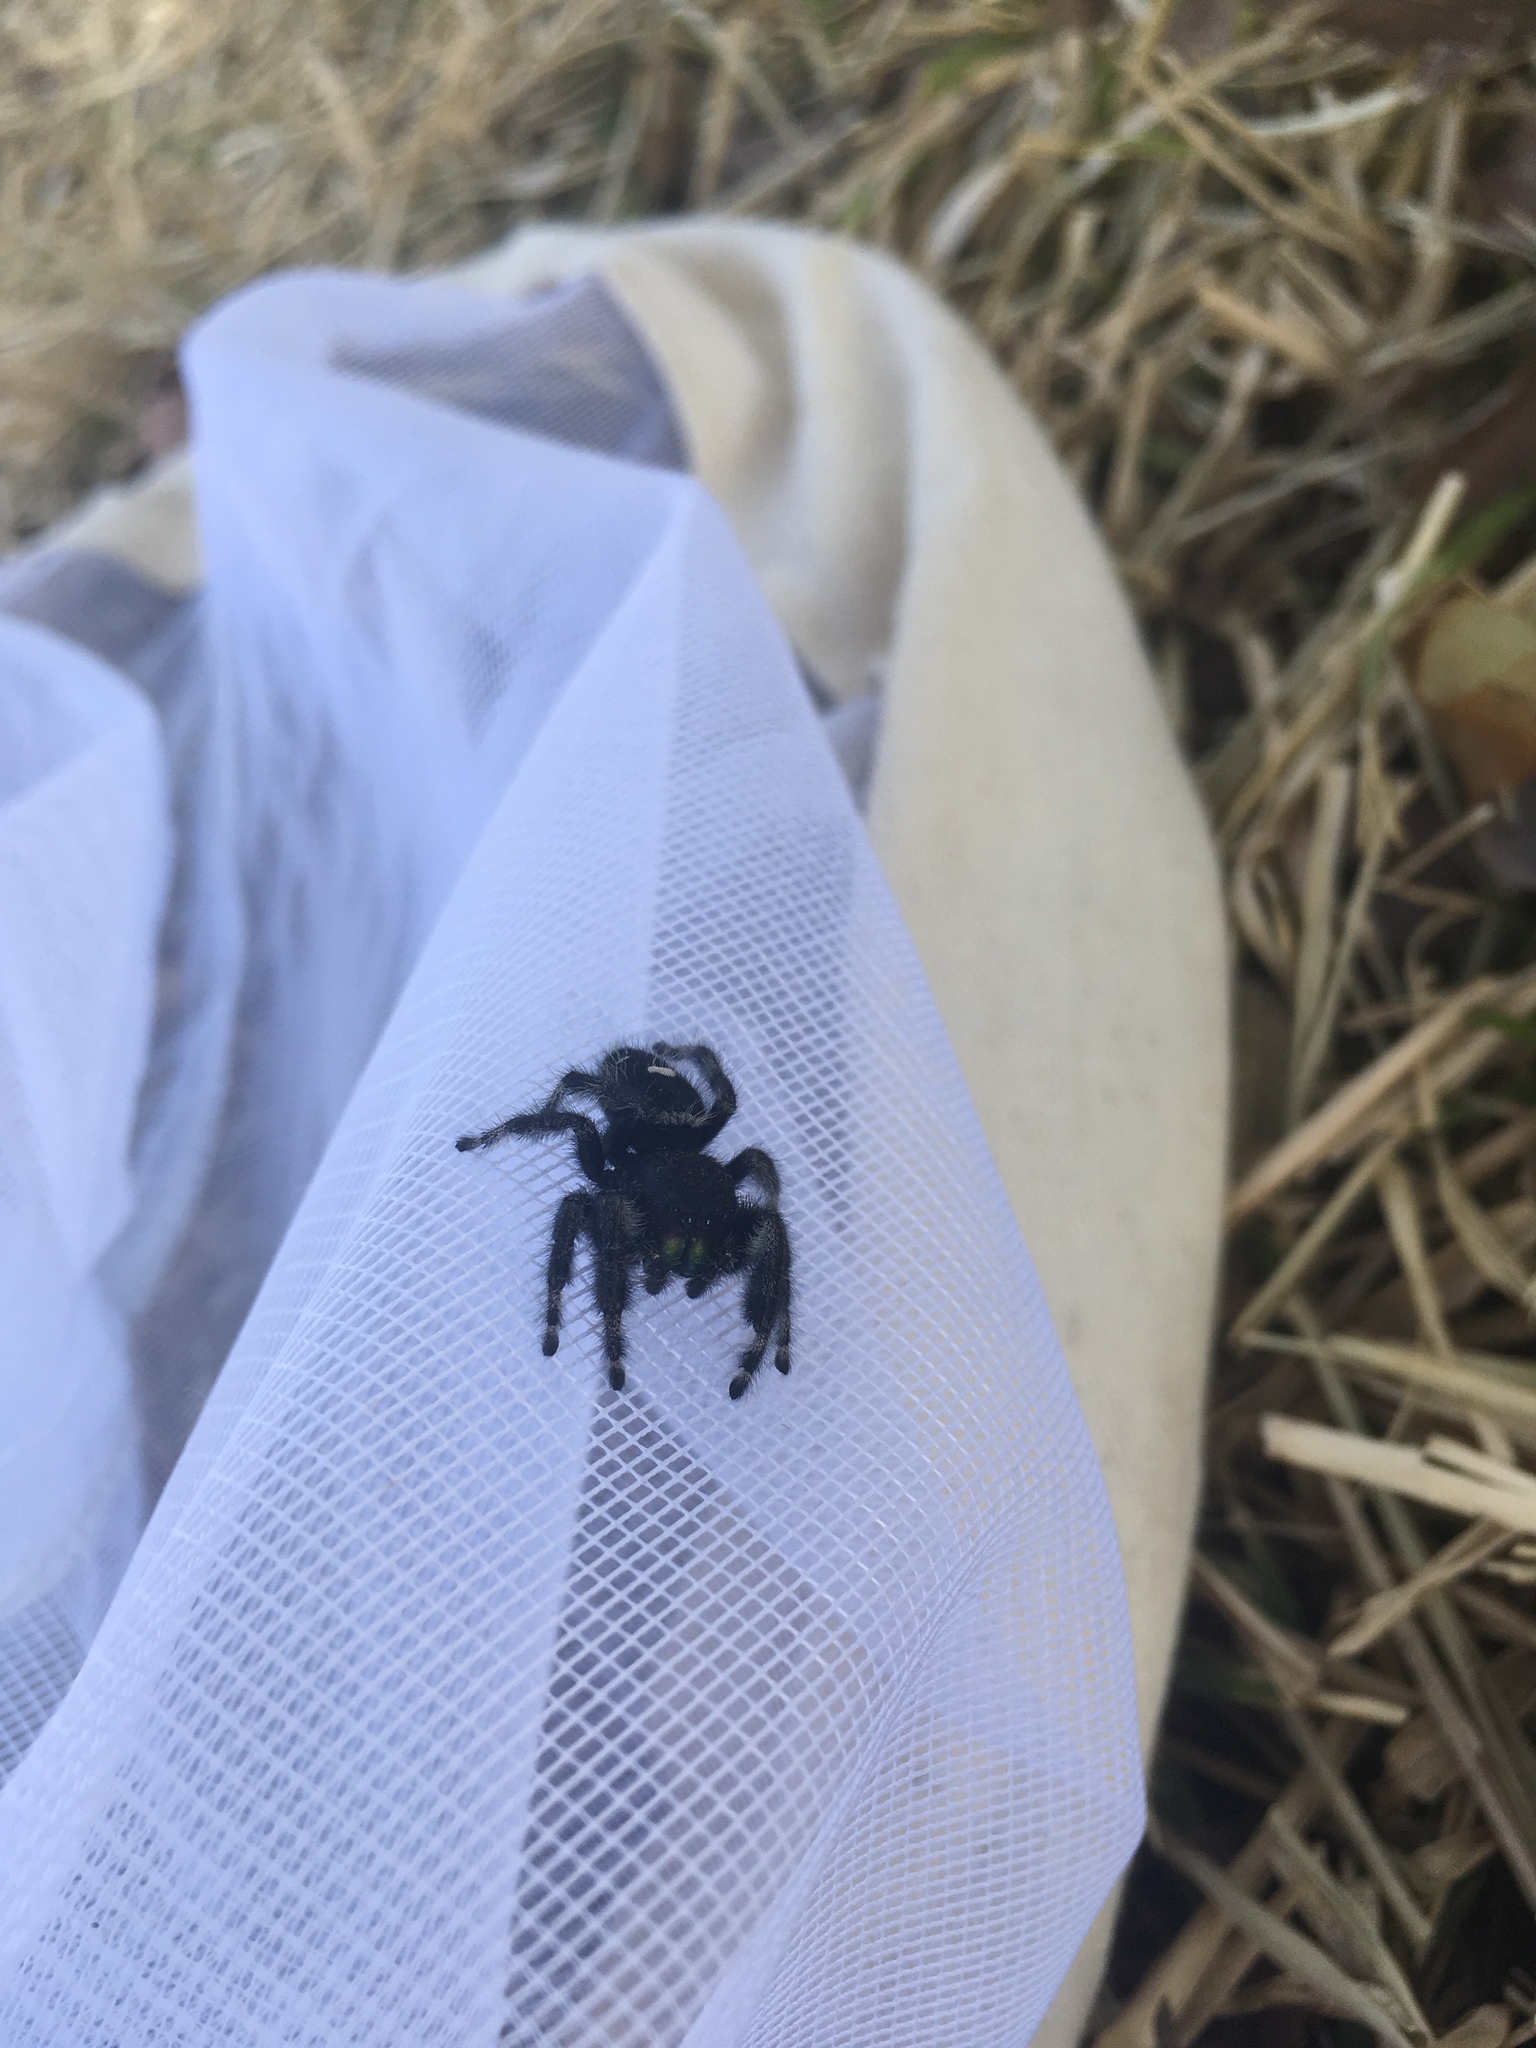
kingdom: Animalia
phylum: Arthropoda
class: Arachnida
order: Araneae
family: Salticidae
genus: Phidippus
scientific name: Phidippus audax
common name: Bold jumper
